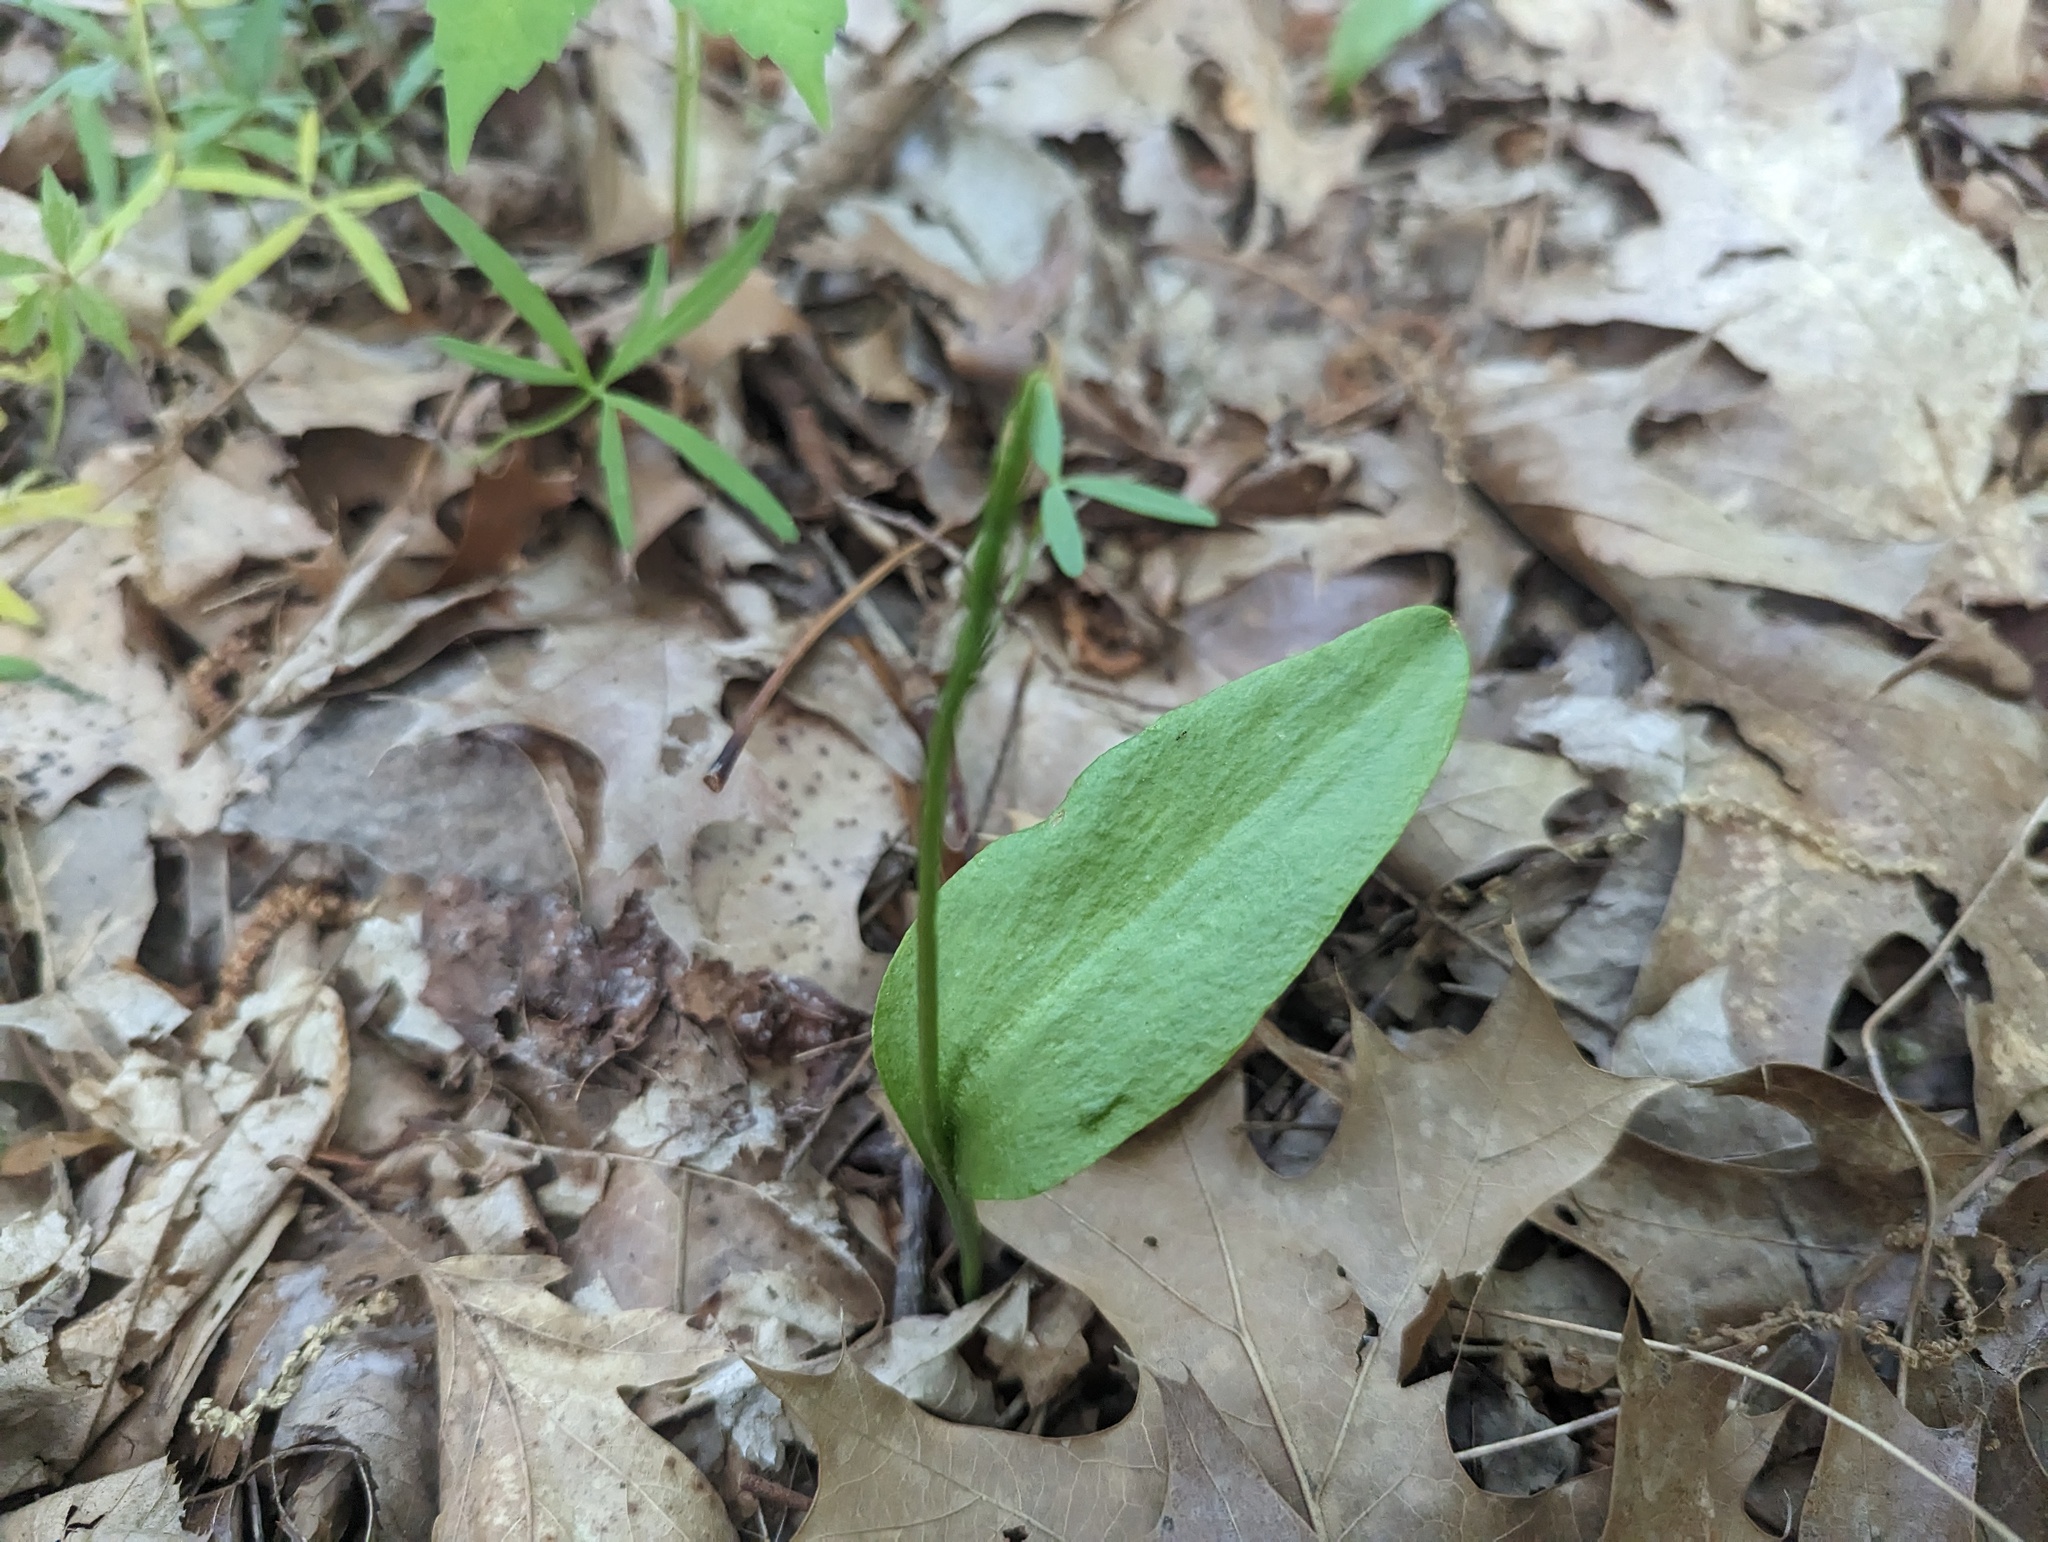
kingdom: Plantae
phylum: Tracheophyta
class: Polypodiopsida
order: Ophioglossales
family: Ophioglossaceae
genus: Ophioglossum
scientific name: Ophioglossum vulgatum
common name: Adder's-tongue
